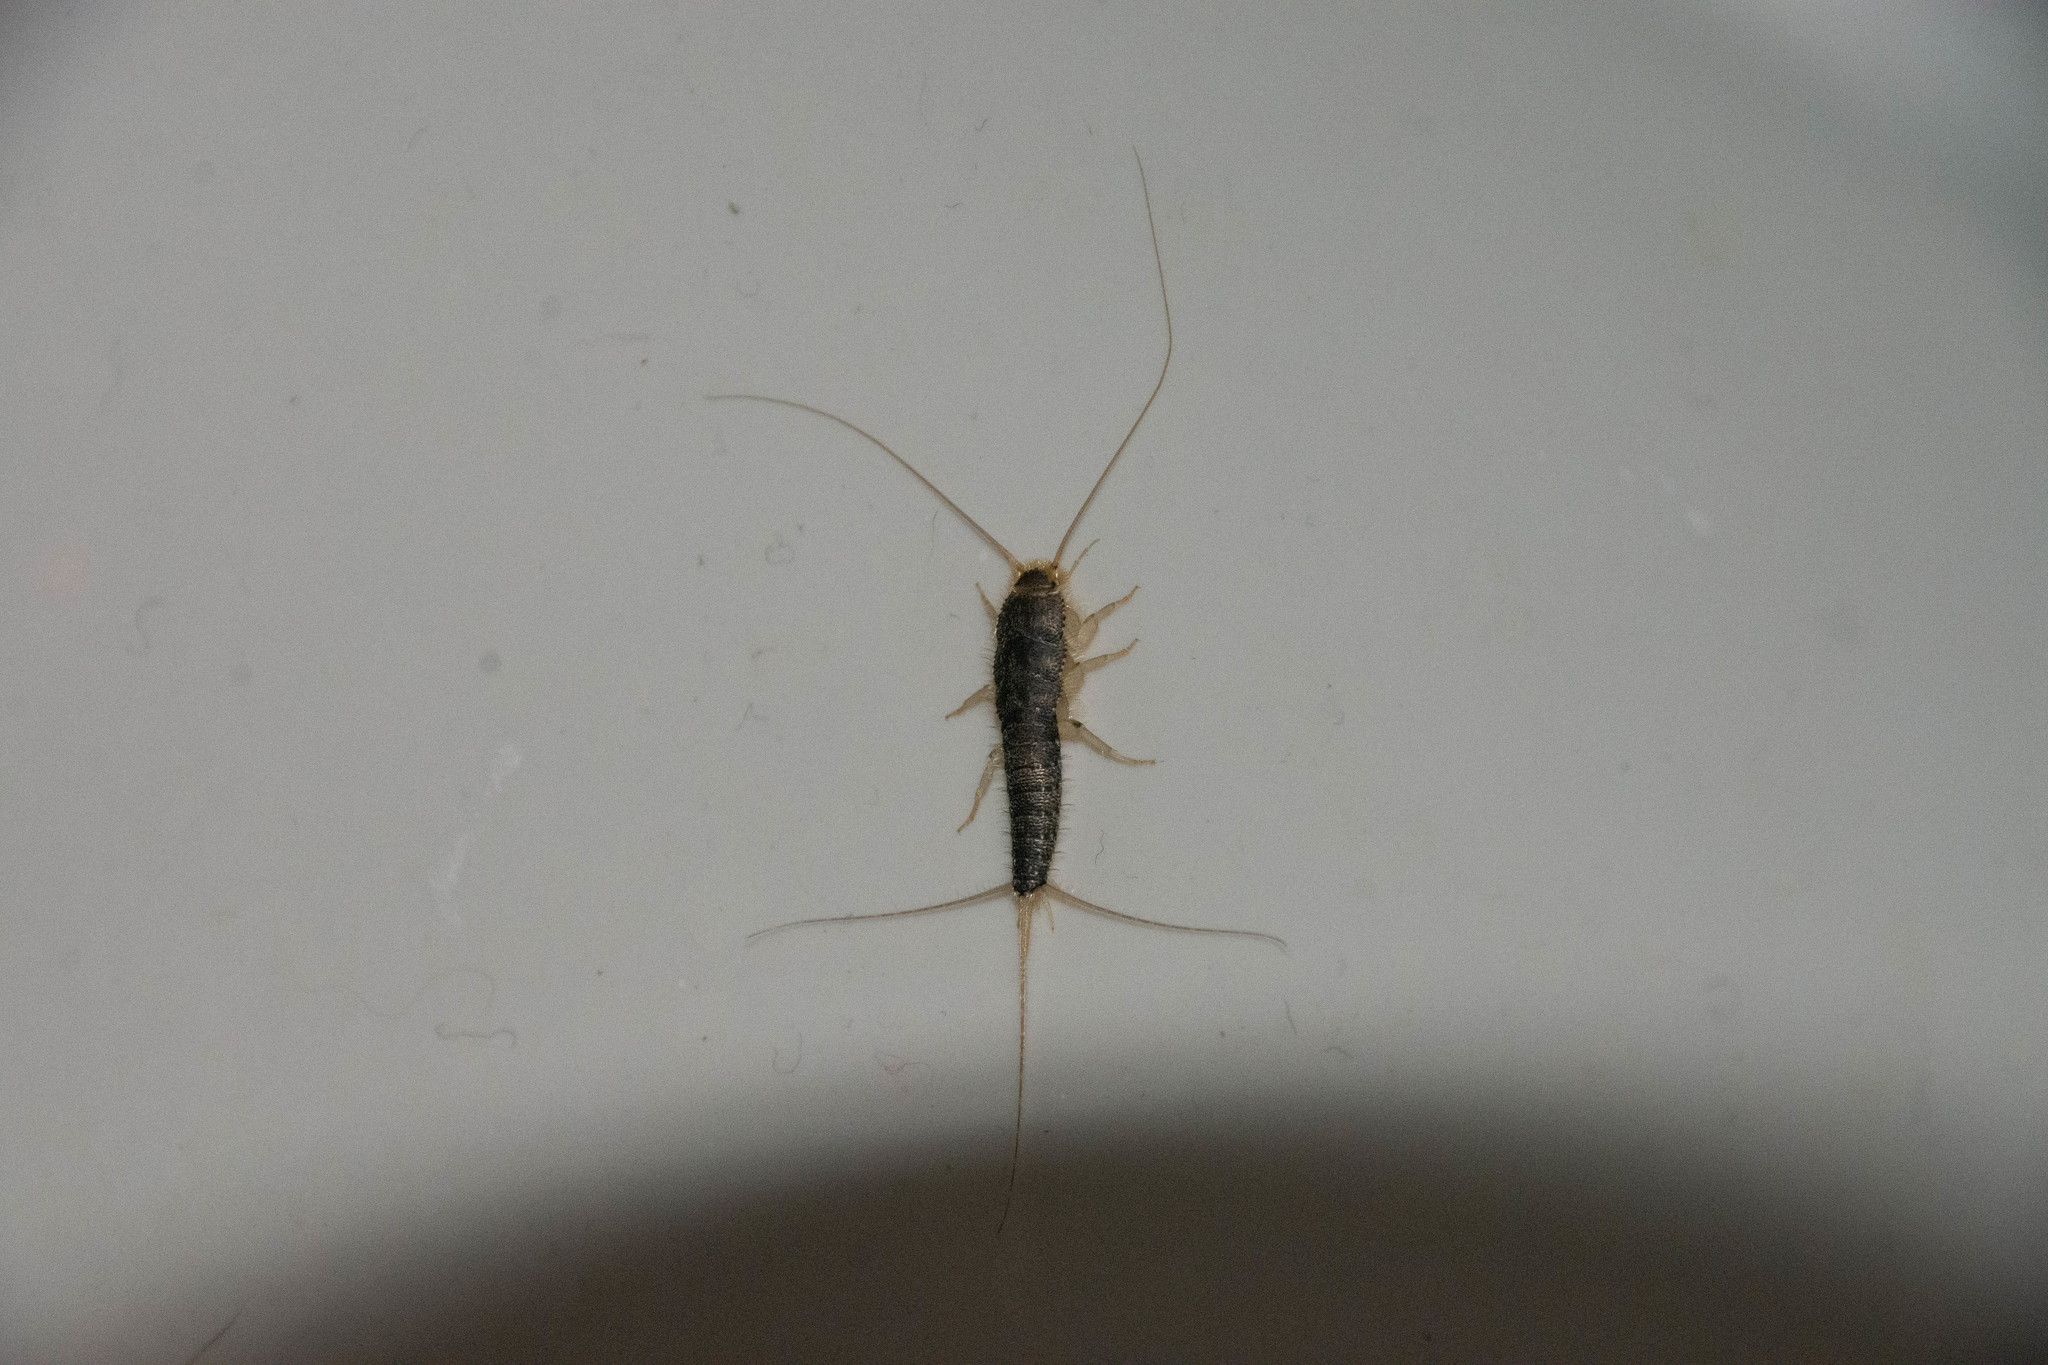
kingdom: Animalia
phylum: Arthropoda
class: Insecta
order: Zygentoma
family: Lepismatidae
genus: Ctenolepisma
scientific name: Ctenolepisma longicaudatum
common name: Silverfish
